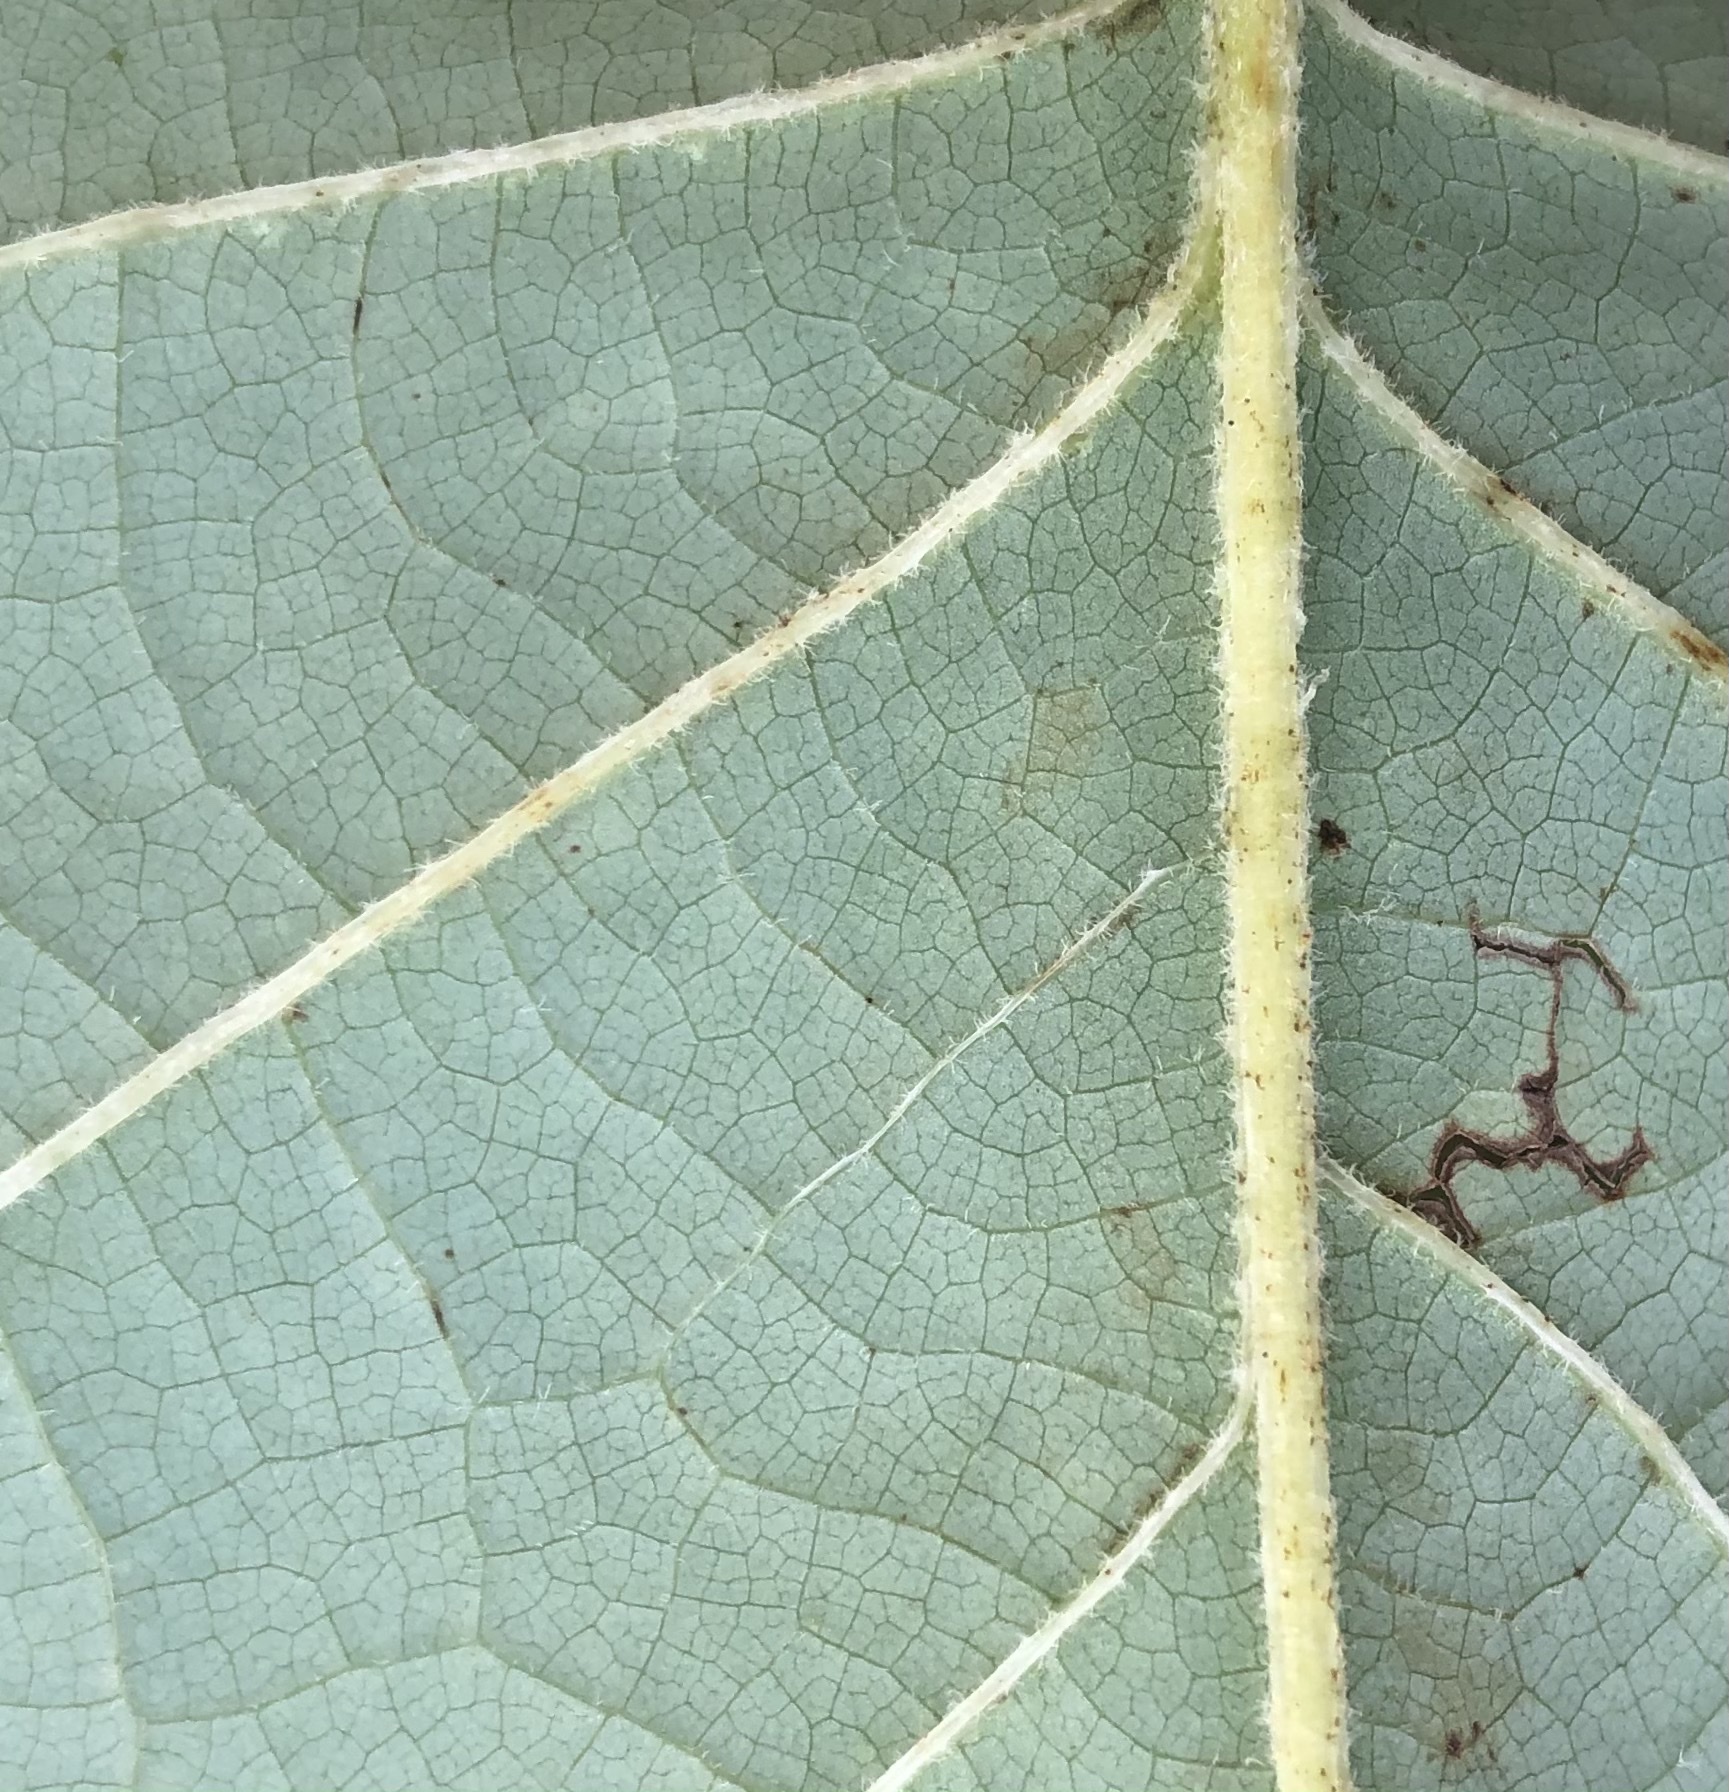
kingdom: Animalia
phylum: Arthropoda
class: Insecta
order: Lepidoptera
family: Gracillariidae
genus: Phyllocnistis
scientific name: Phyllocnistis liriodendronella
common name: Tulip tree leaf miner
